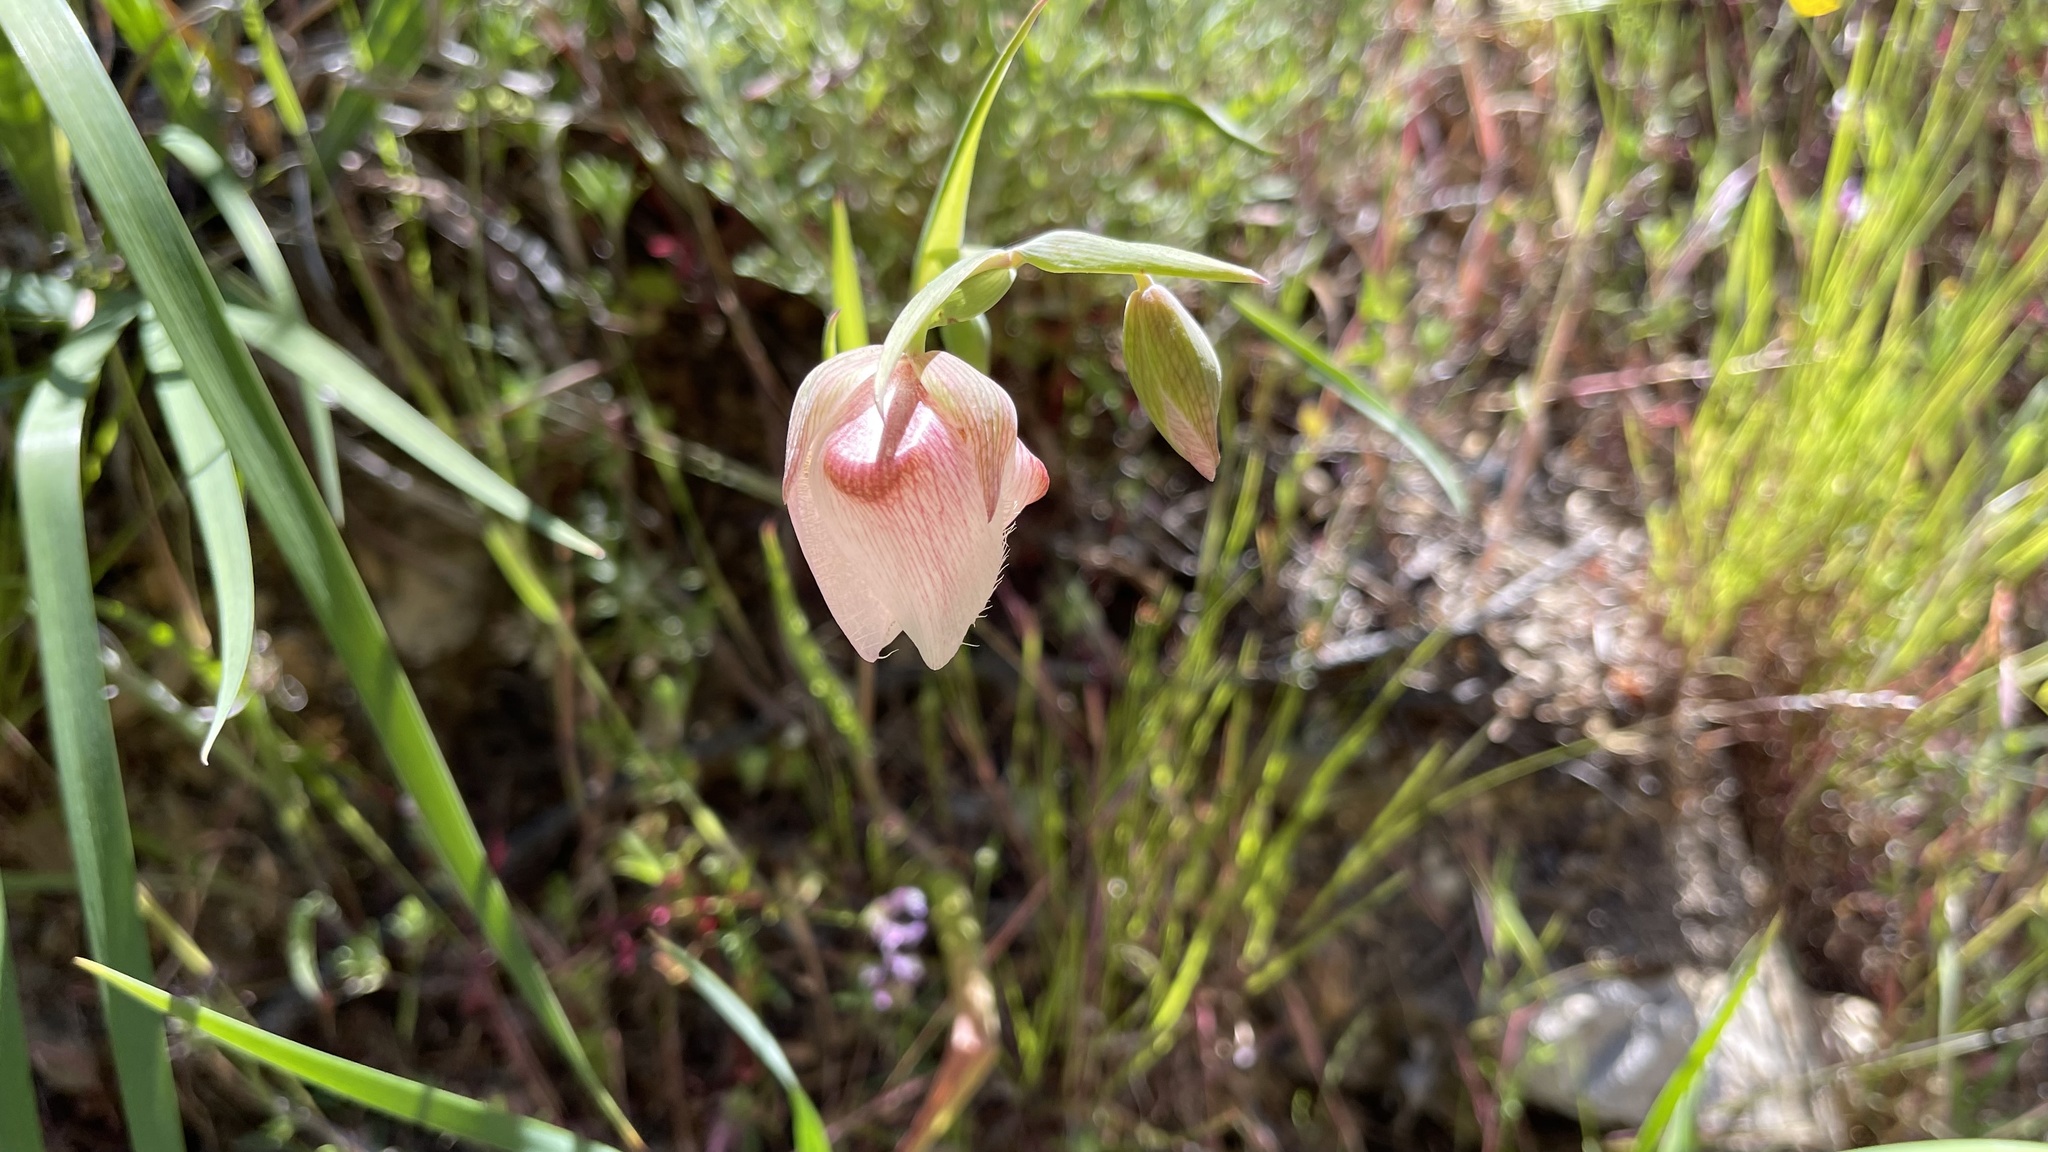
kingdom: Plantae
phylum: Tracheophyta
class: Liliopsida
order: Liliales
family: Liliaceae
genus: Calochortus
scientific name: Calochortus albus
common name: Fairy-lantern
